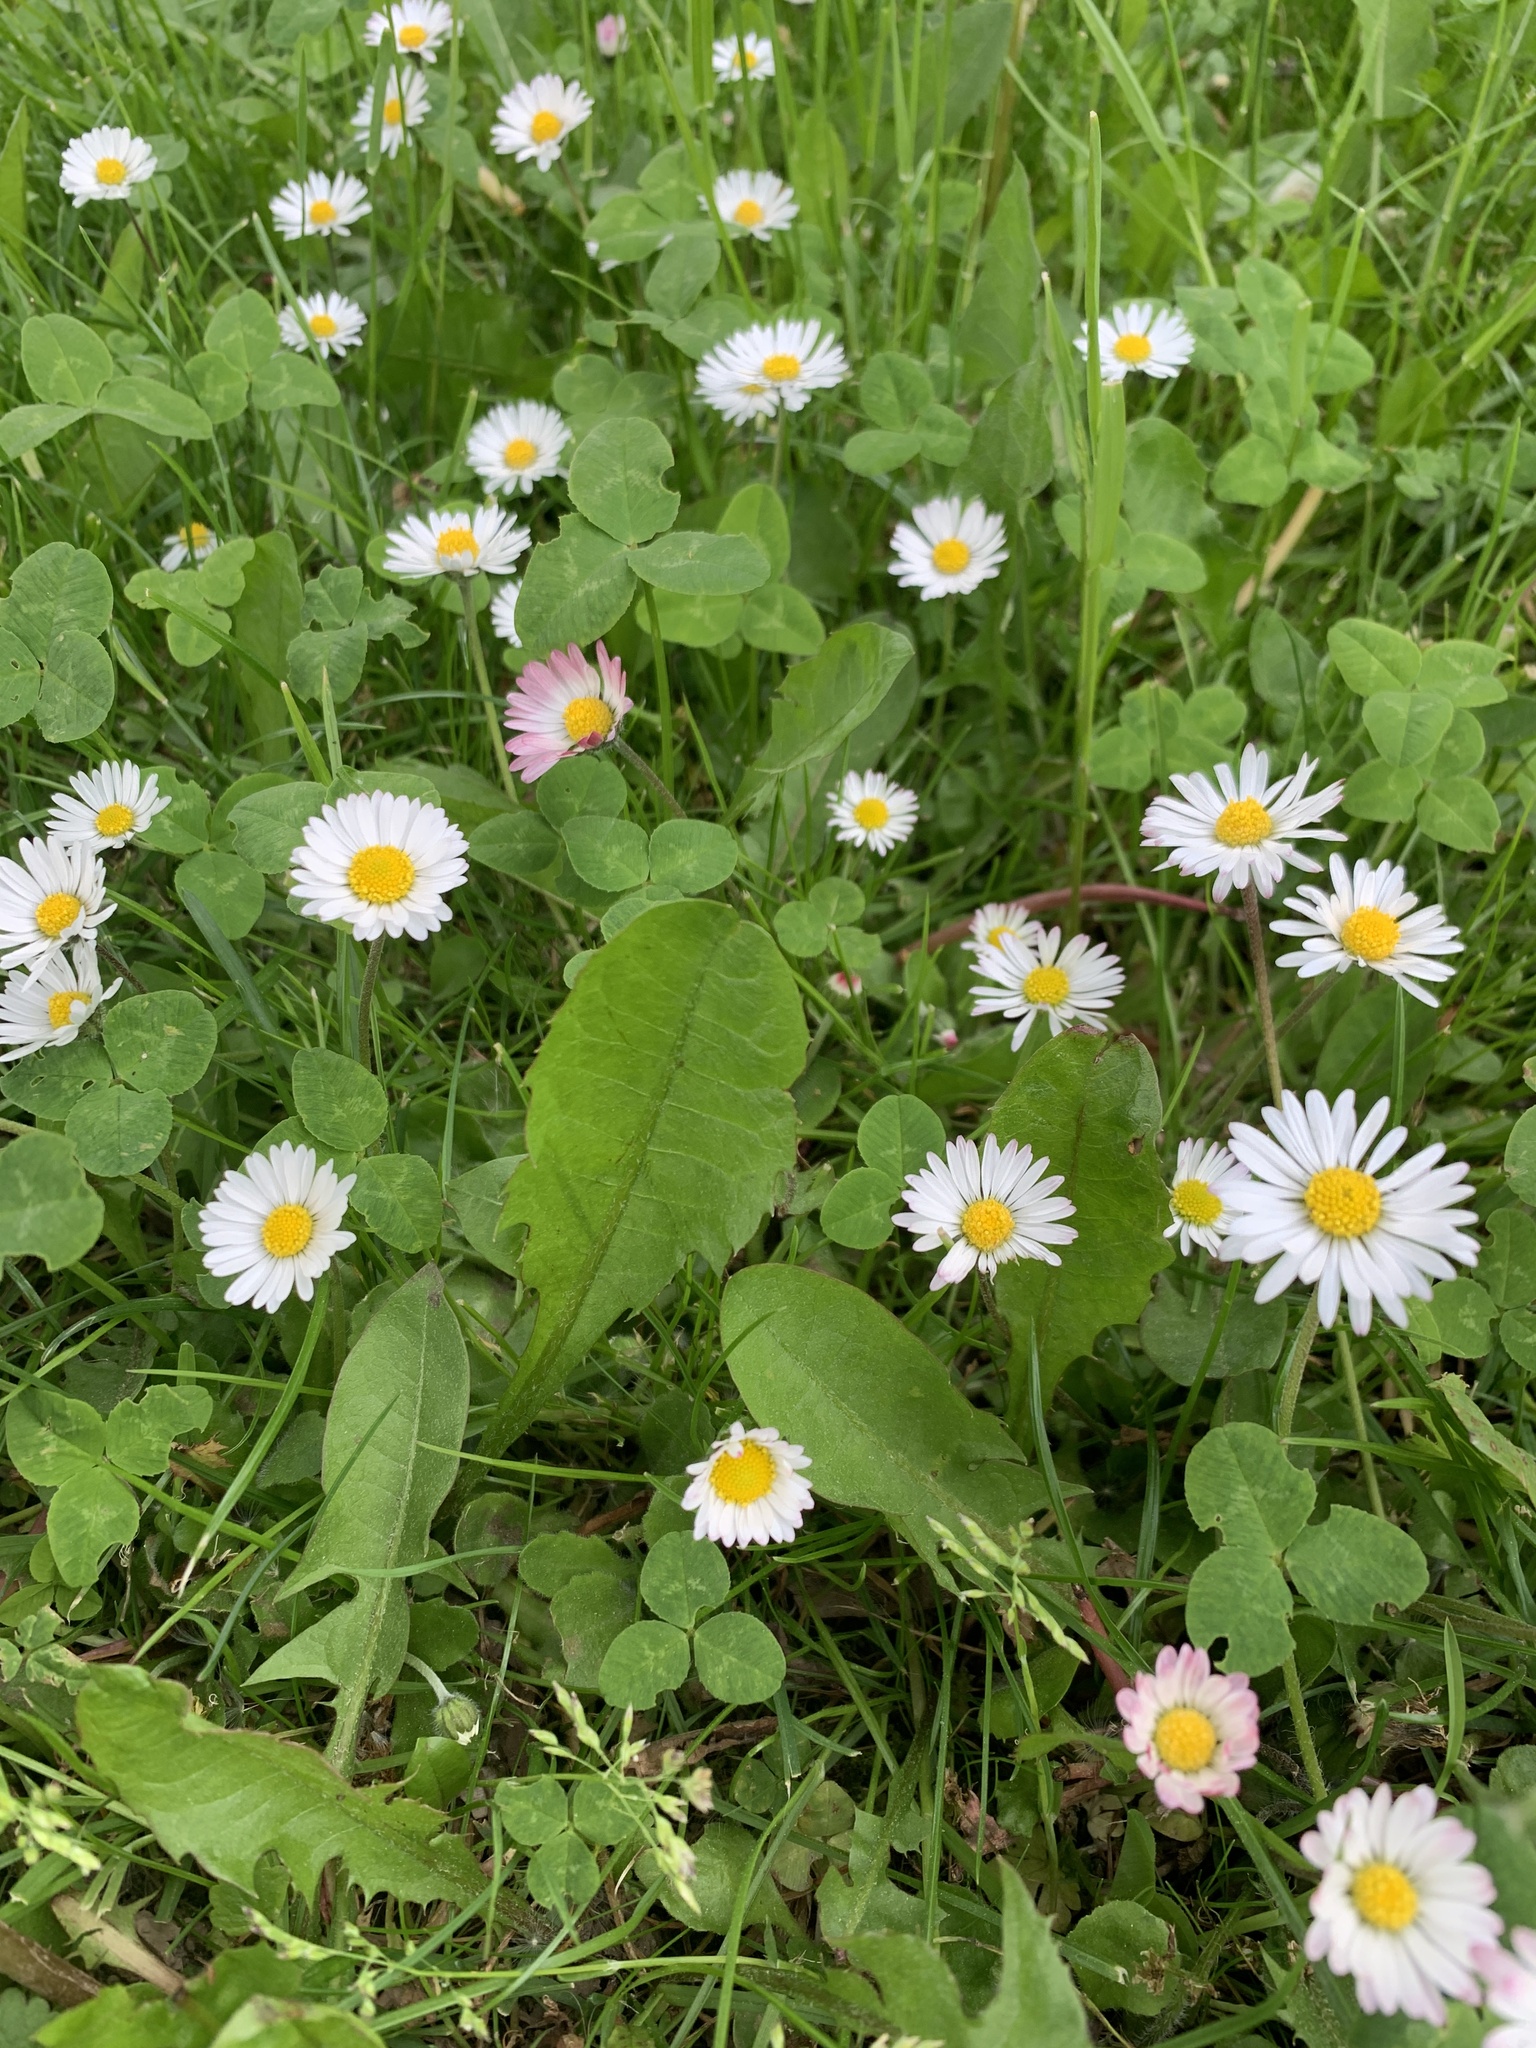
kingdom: Plantae
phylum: Tracheophyta
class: Magnoliopsida
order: Asterales
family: Asteraceae
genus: Bellis
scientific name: Bellis perennis
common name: Lawndaisy
